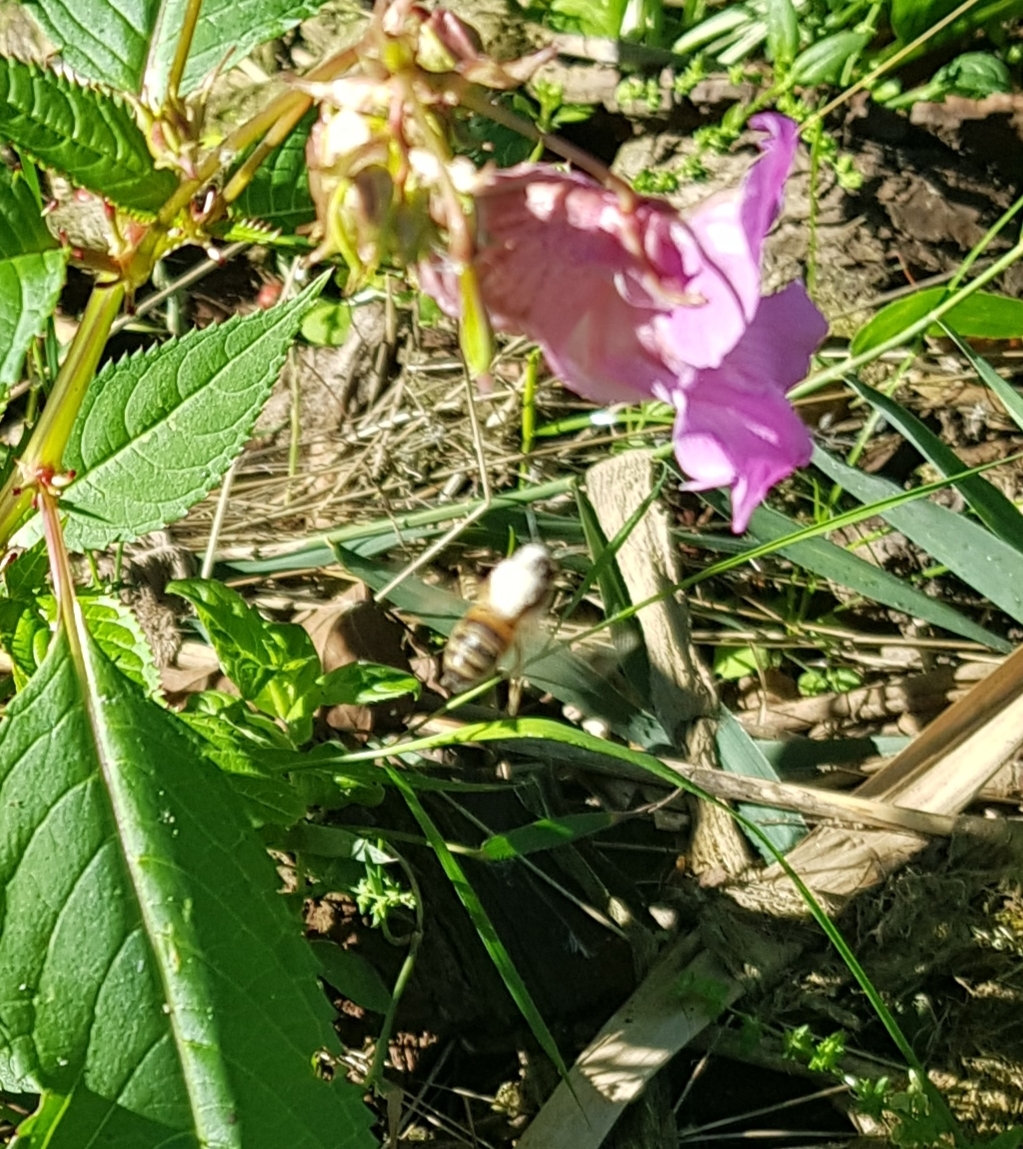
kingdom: Animalia
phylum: Arthropoda
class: Insecta
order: Hymenoptera
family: Apidae
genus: Apis
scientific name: Apis mellifera
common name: Honey bee
